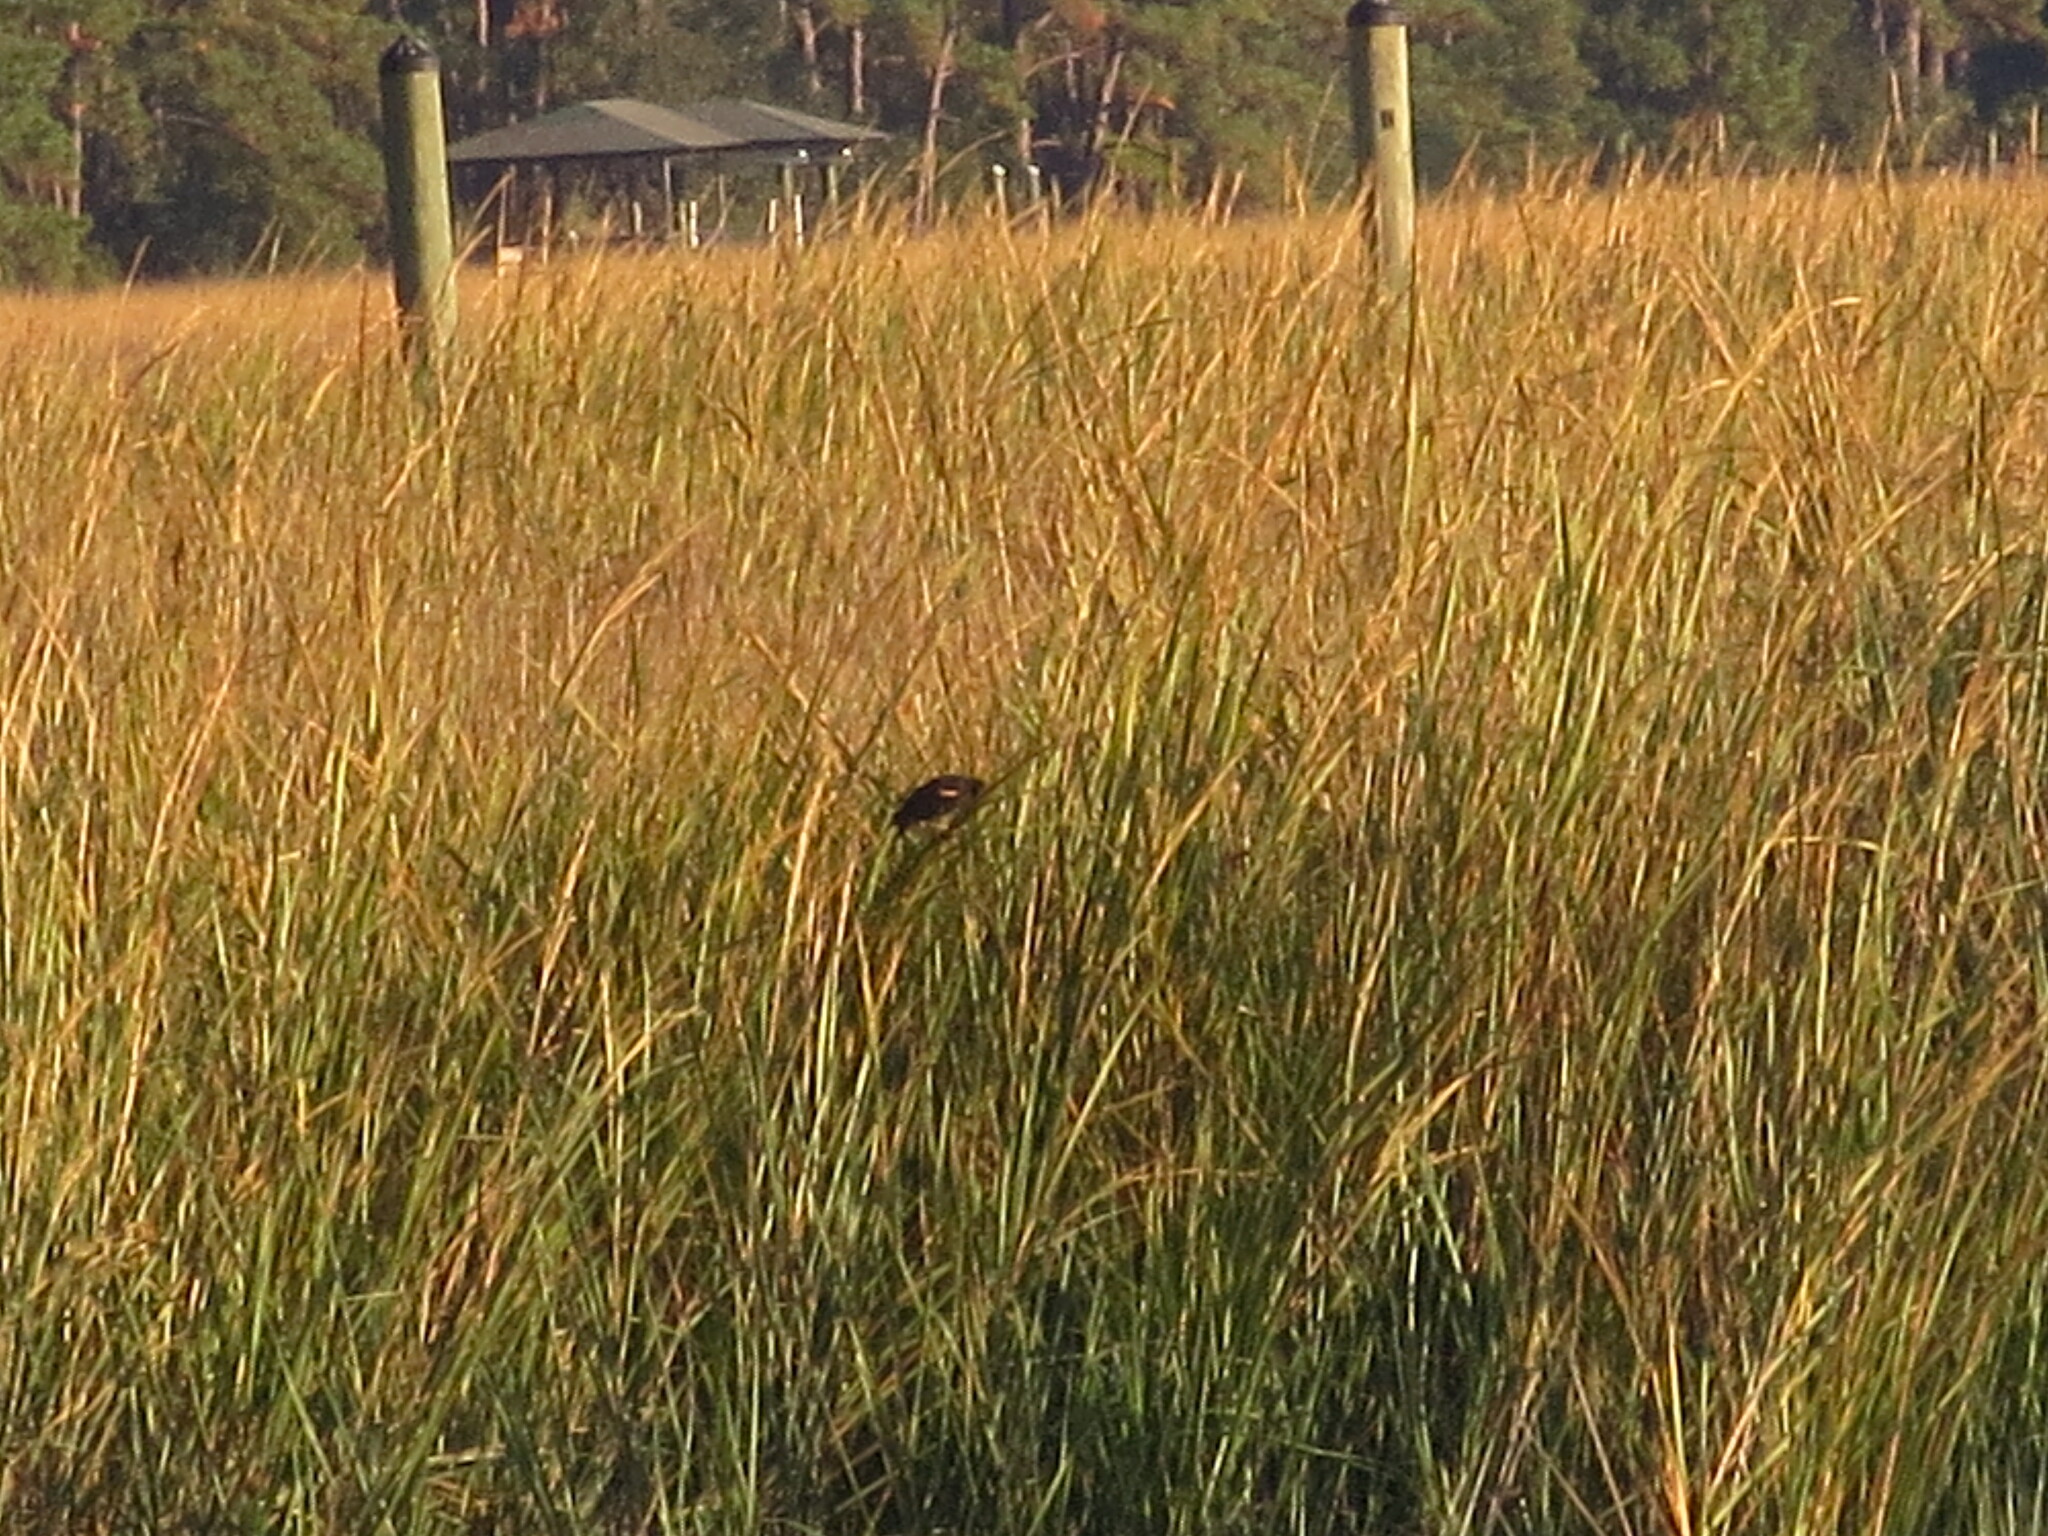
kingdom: Animalia
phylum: Chordata
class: Aves
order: Passeriformes
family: Icteridae
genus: Agelaius
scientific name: Agelaius phoeniceus
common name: Red-winged blackbird
